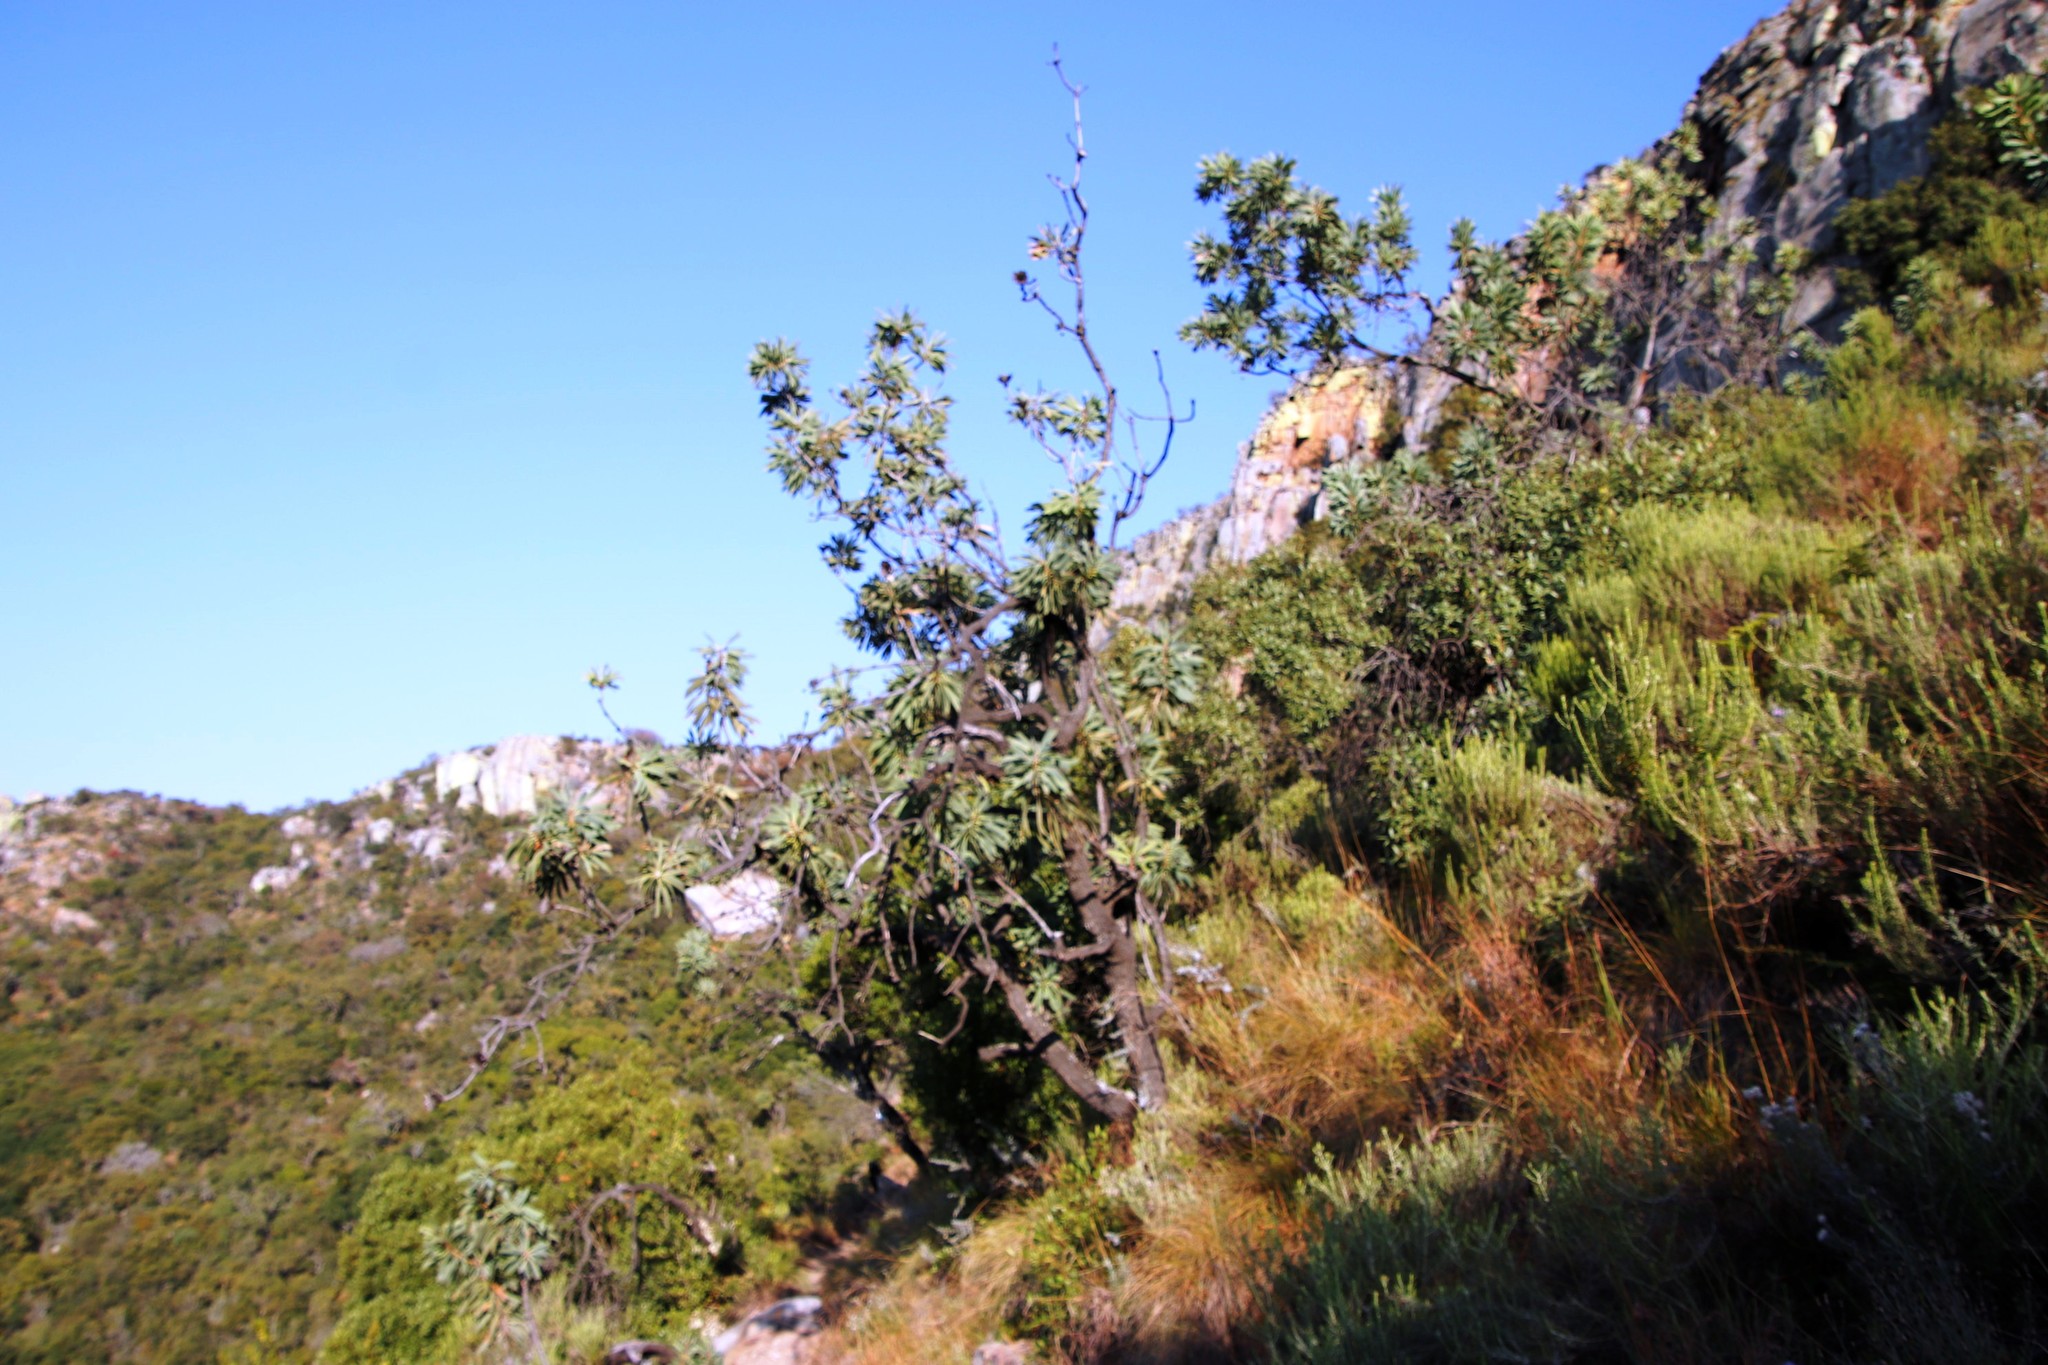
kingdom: Plantae
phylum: Tracheophyta
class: Magnoliopsida
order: Proteales
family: Proteaceae
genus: Protea
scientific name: Protea laetans
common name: Blyde protea
